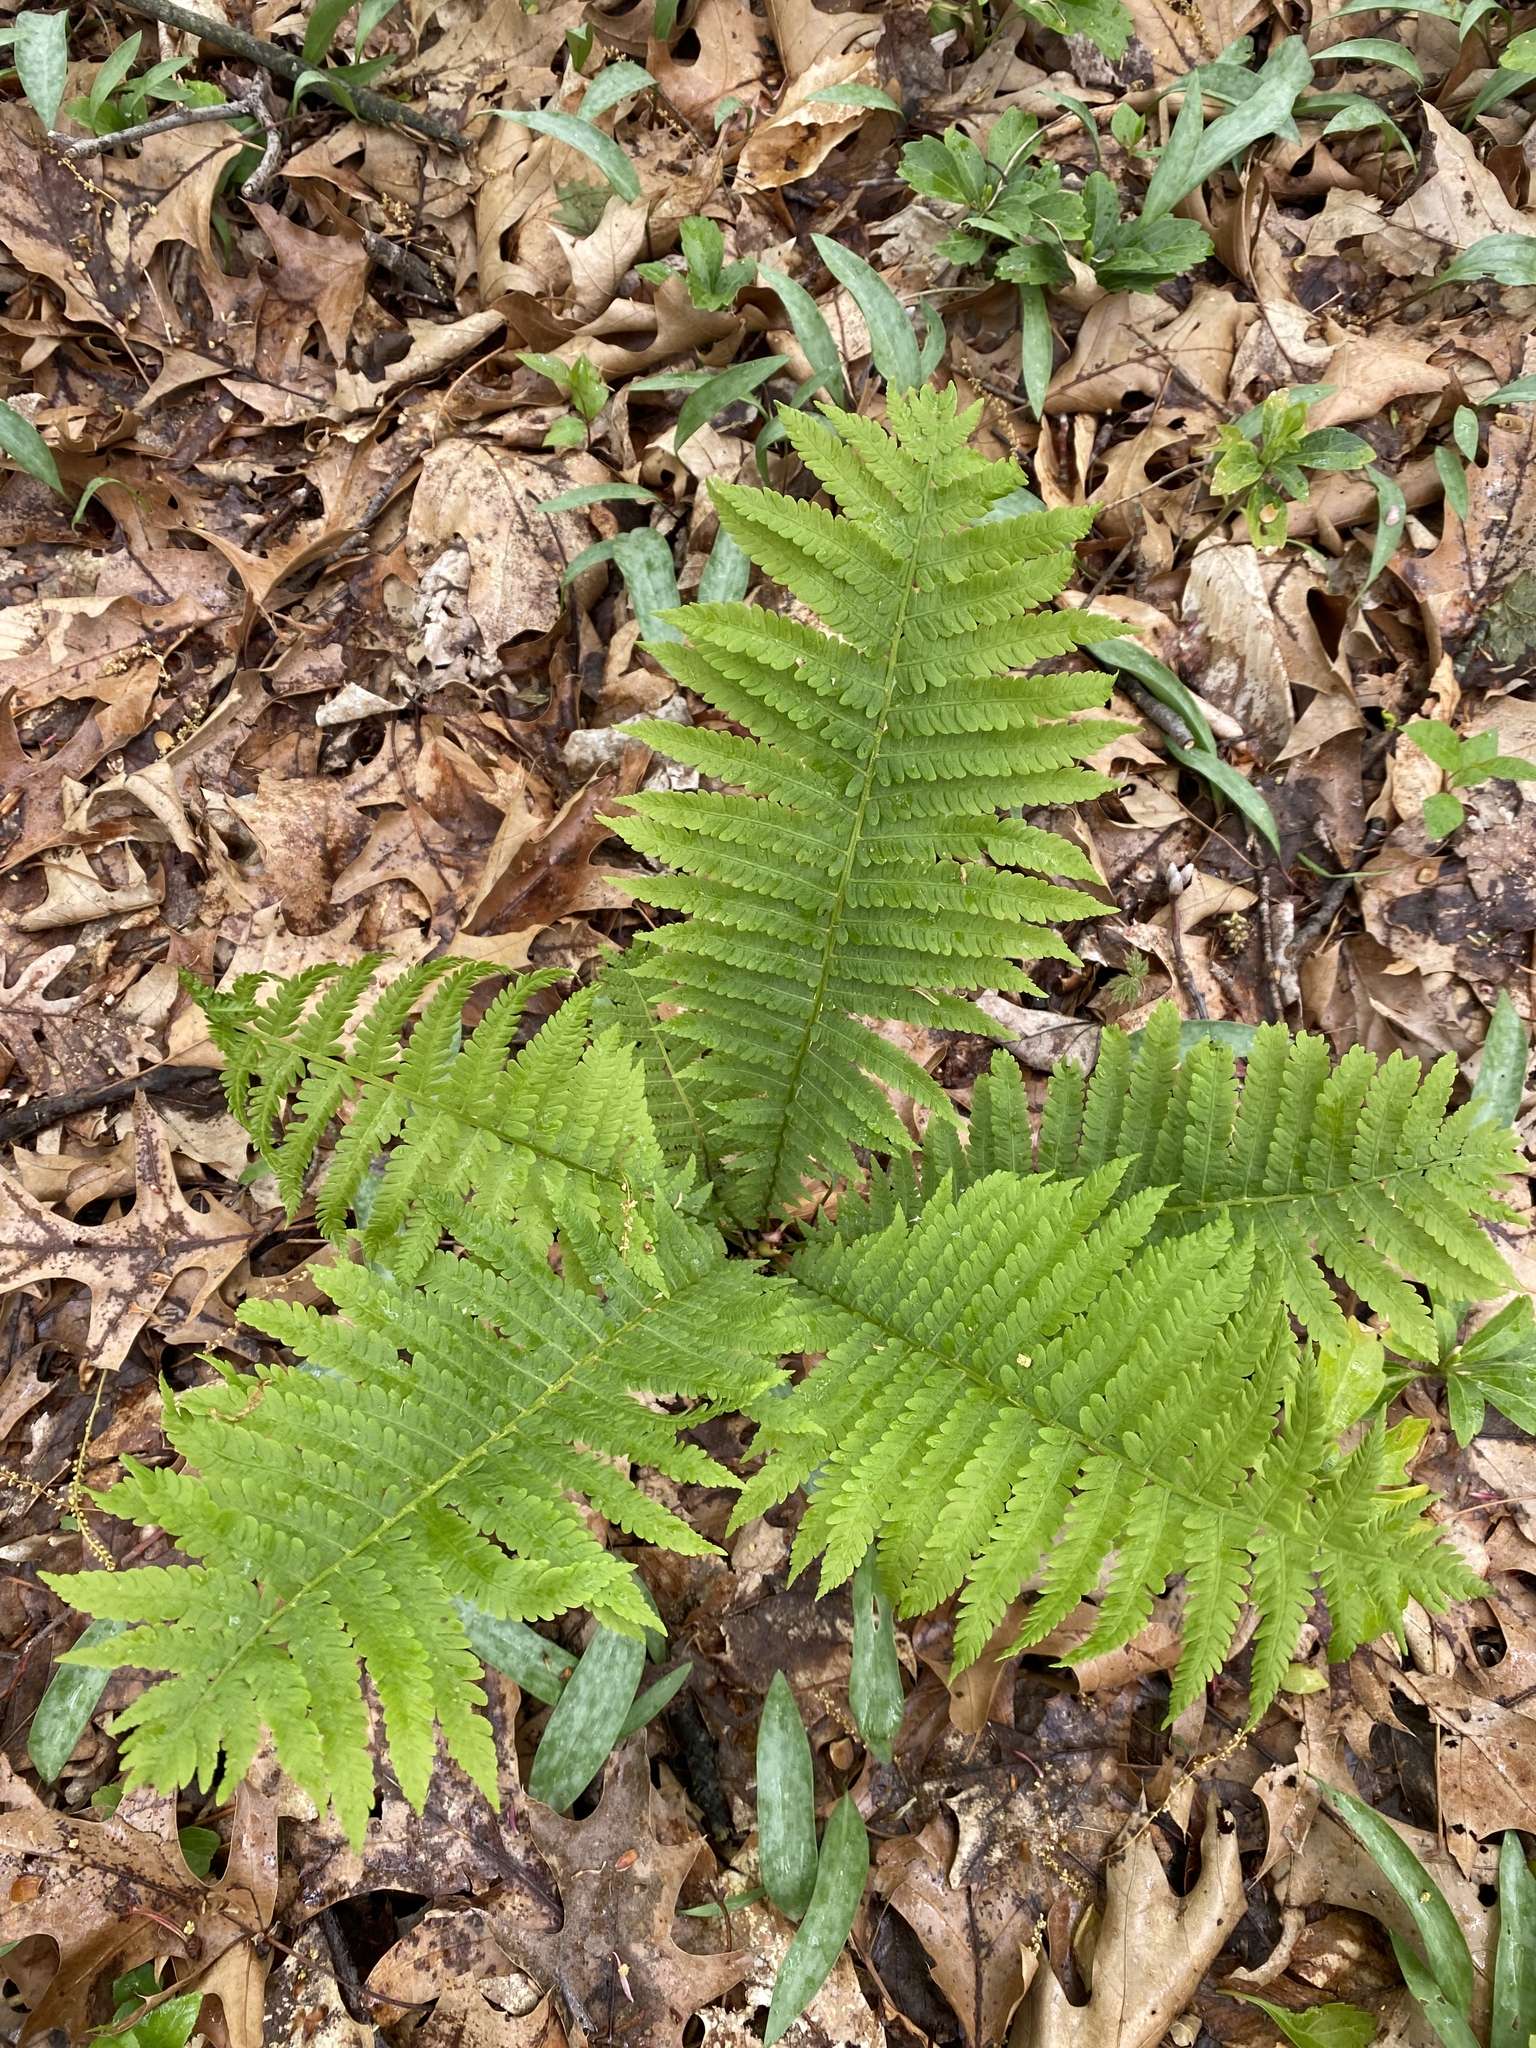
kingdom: Plantae
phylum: Tracheophyta
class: Polypodiopsida
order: Polypodiales
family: Onocleaceae
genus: Matteuccia
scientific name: Matteuccia struthiopteris
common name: Ostrich fern
